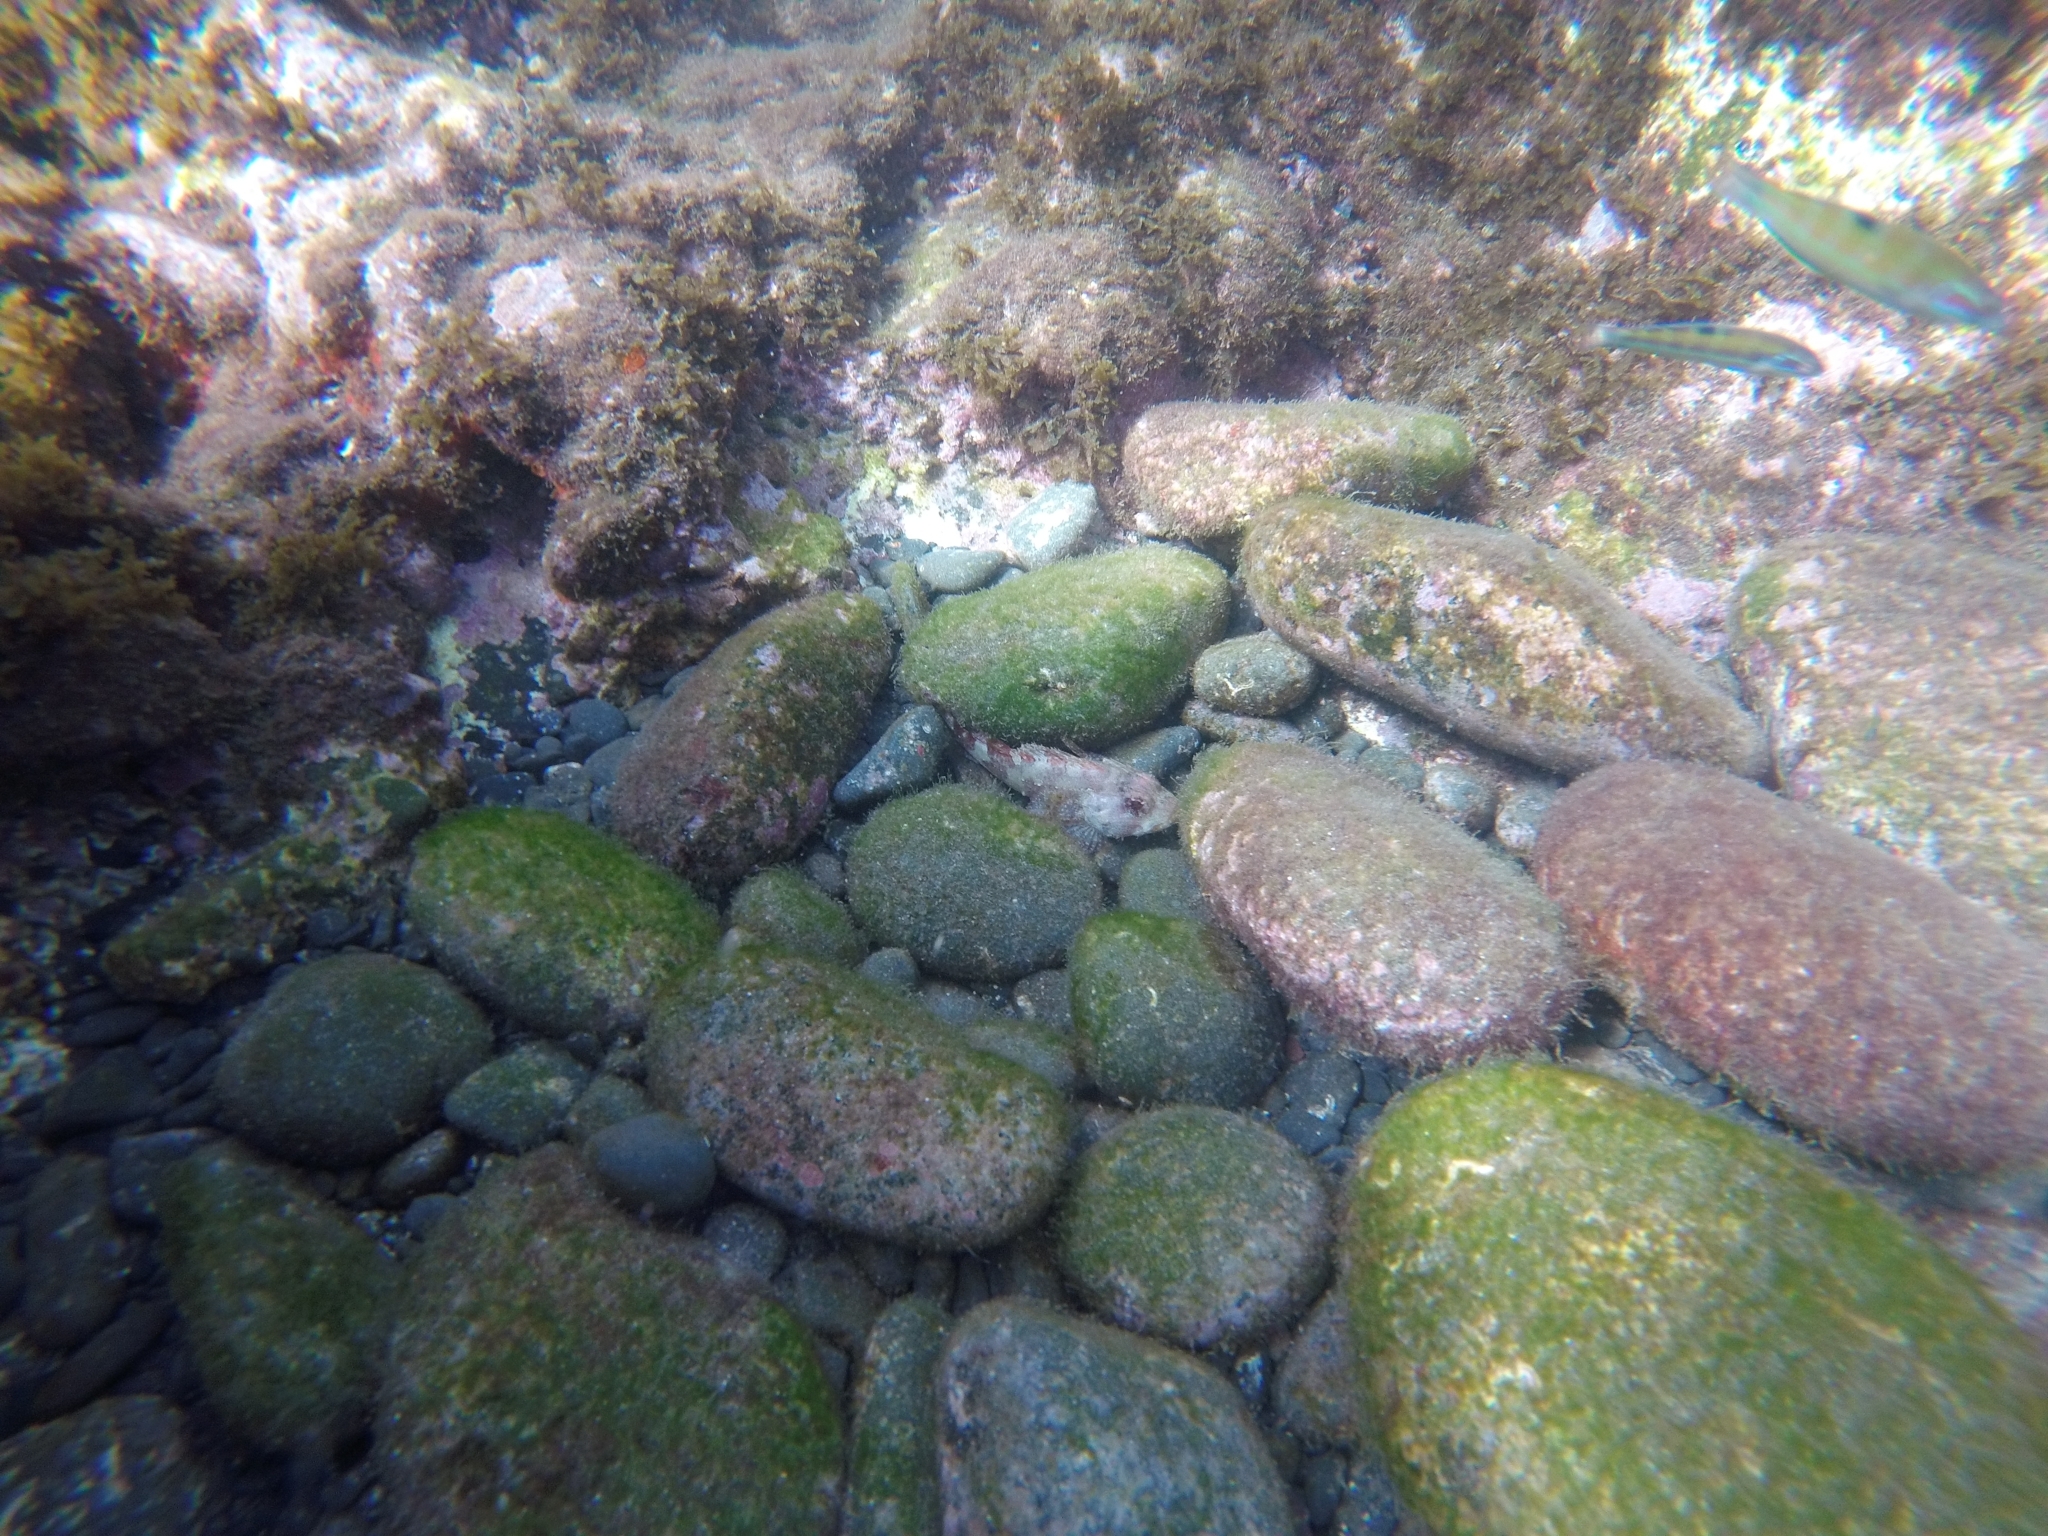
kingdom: Animalia
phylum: Chordata
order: Perciformes
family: Labridae
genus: Thalassoma
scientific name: Thalassoma pavo
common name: Ornate wrasse
